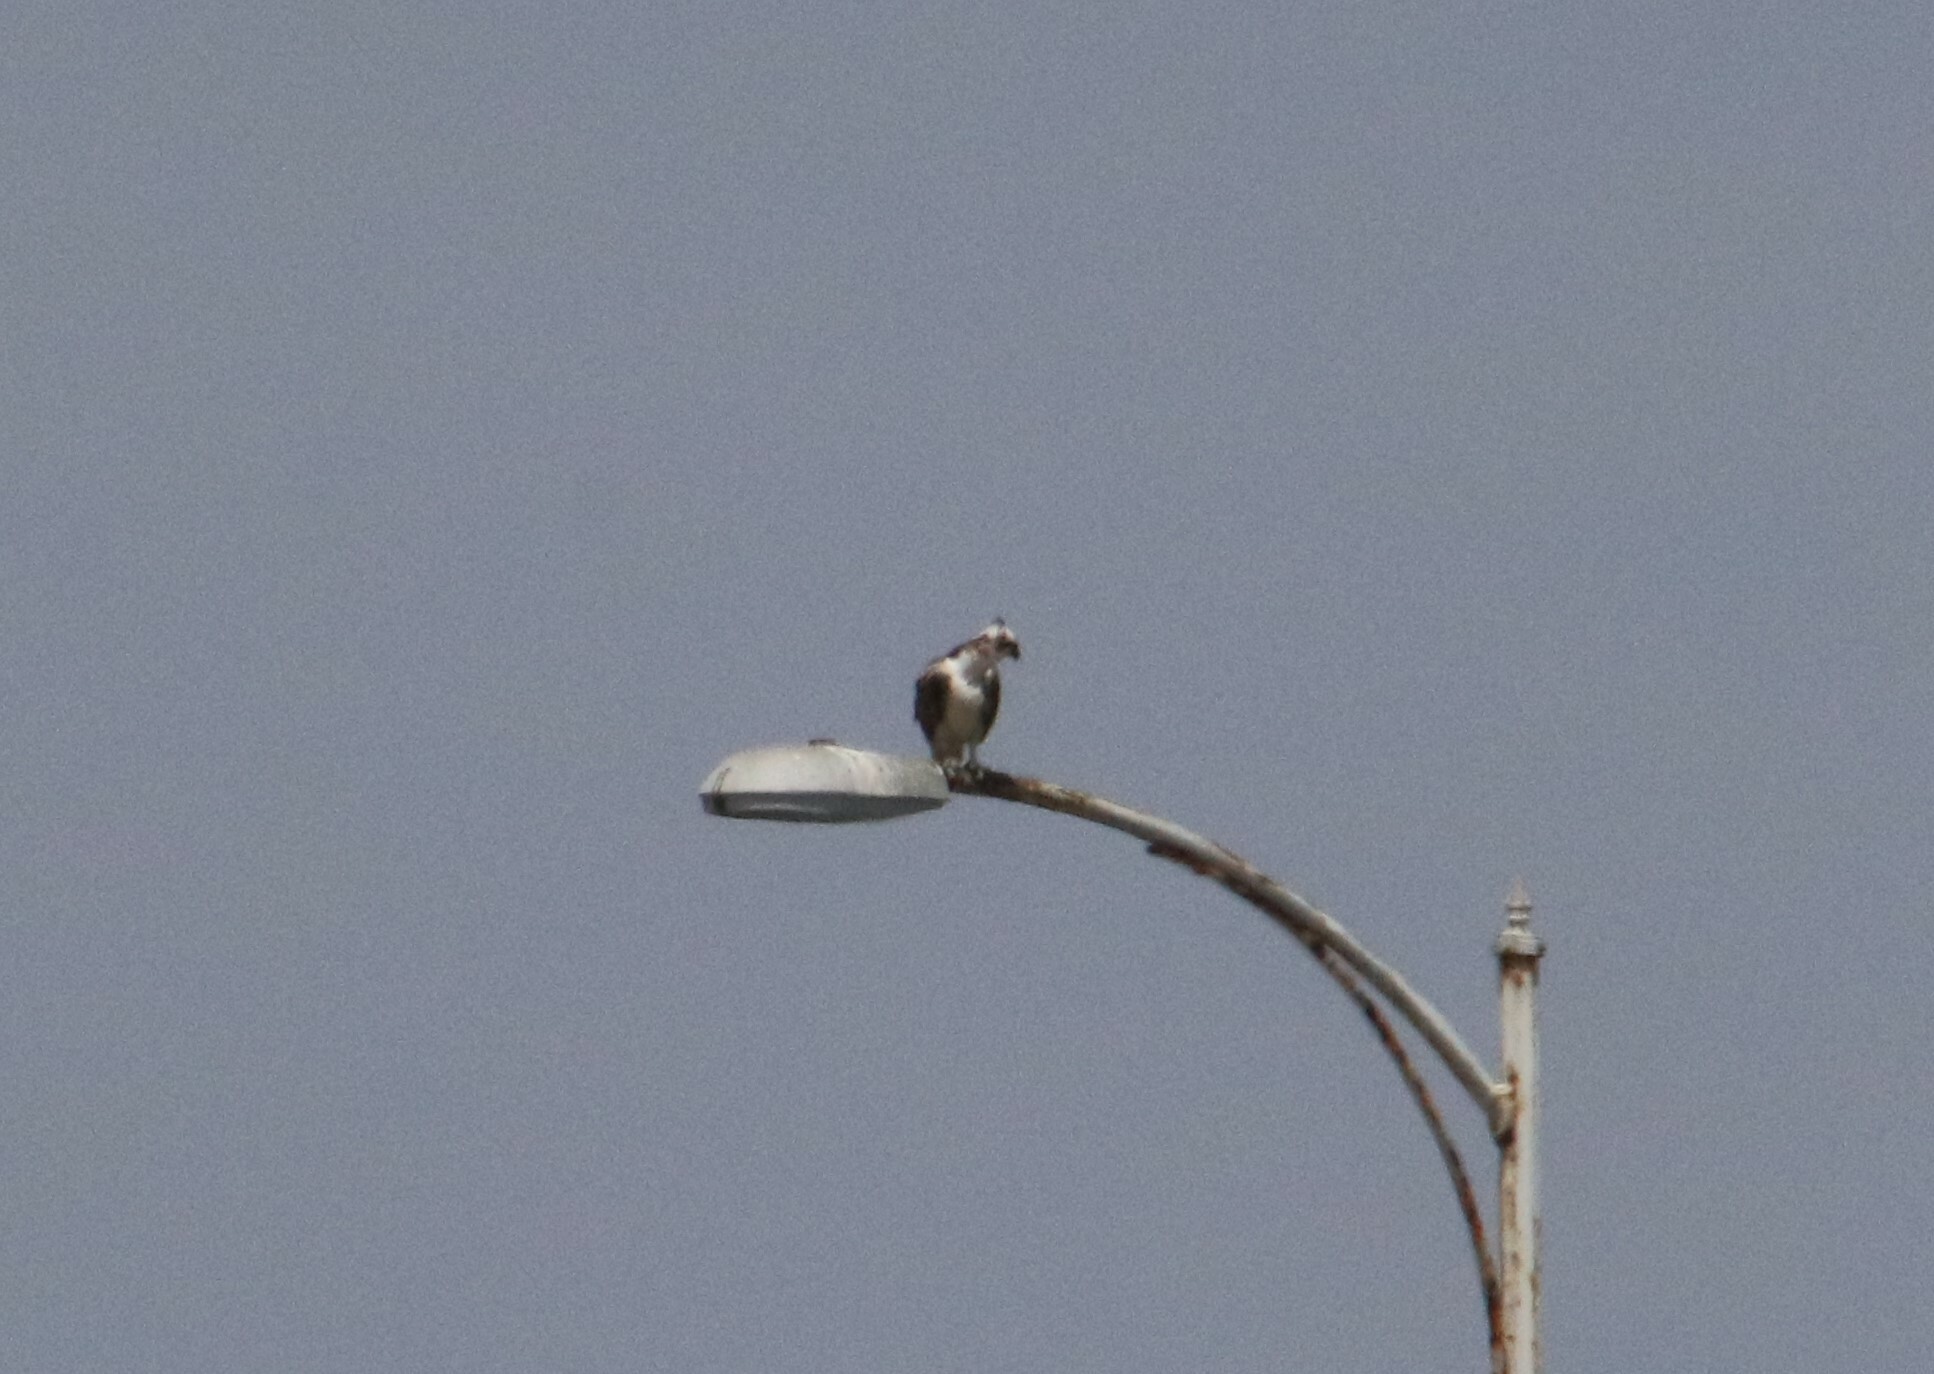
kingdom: Animalia
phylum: Chordata
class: Aves
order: Accipitriformes
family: Pandionidae
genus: Pandion
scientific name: Pandion haliaetus
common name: Osprey
